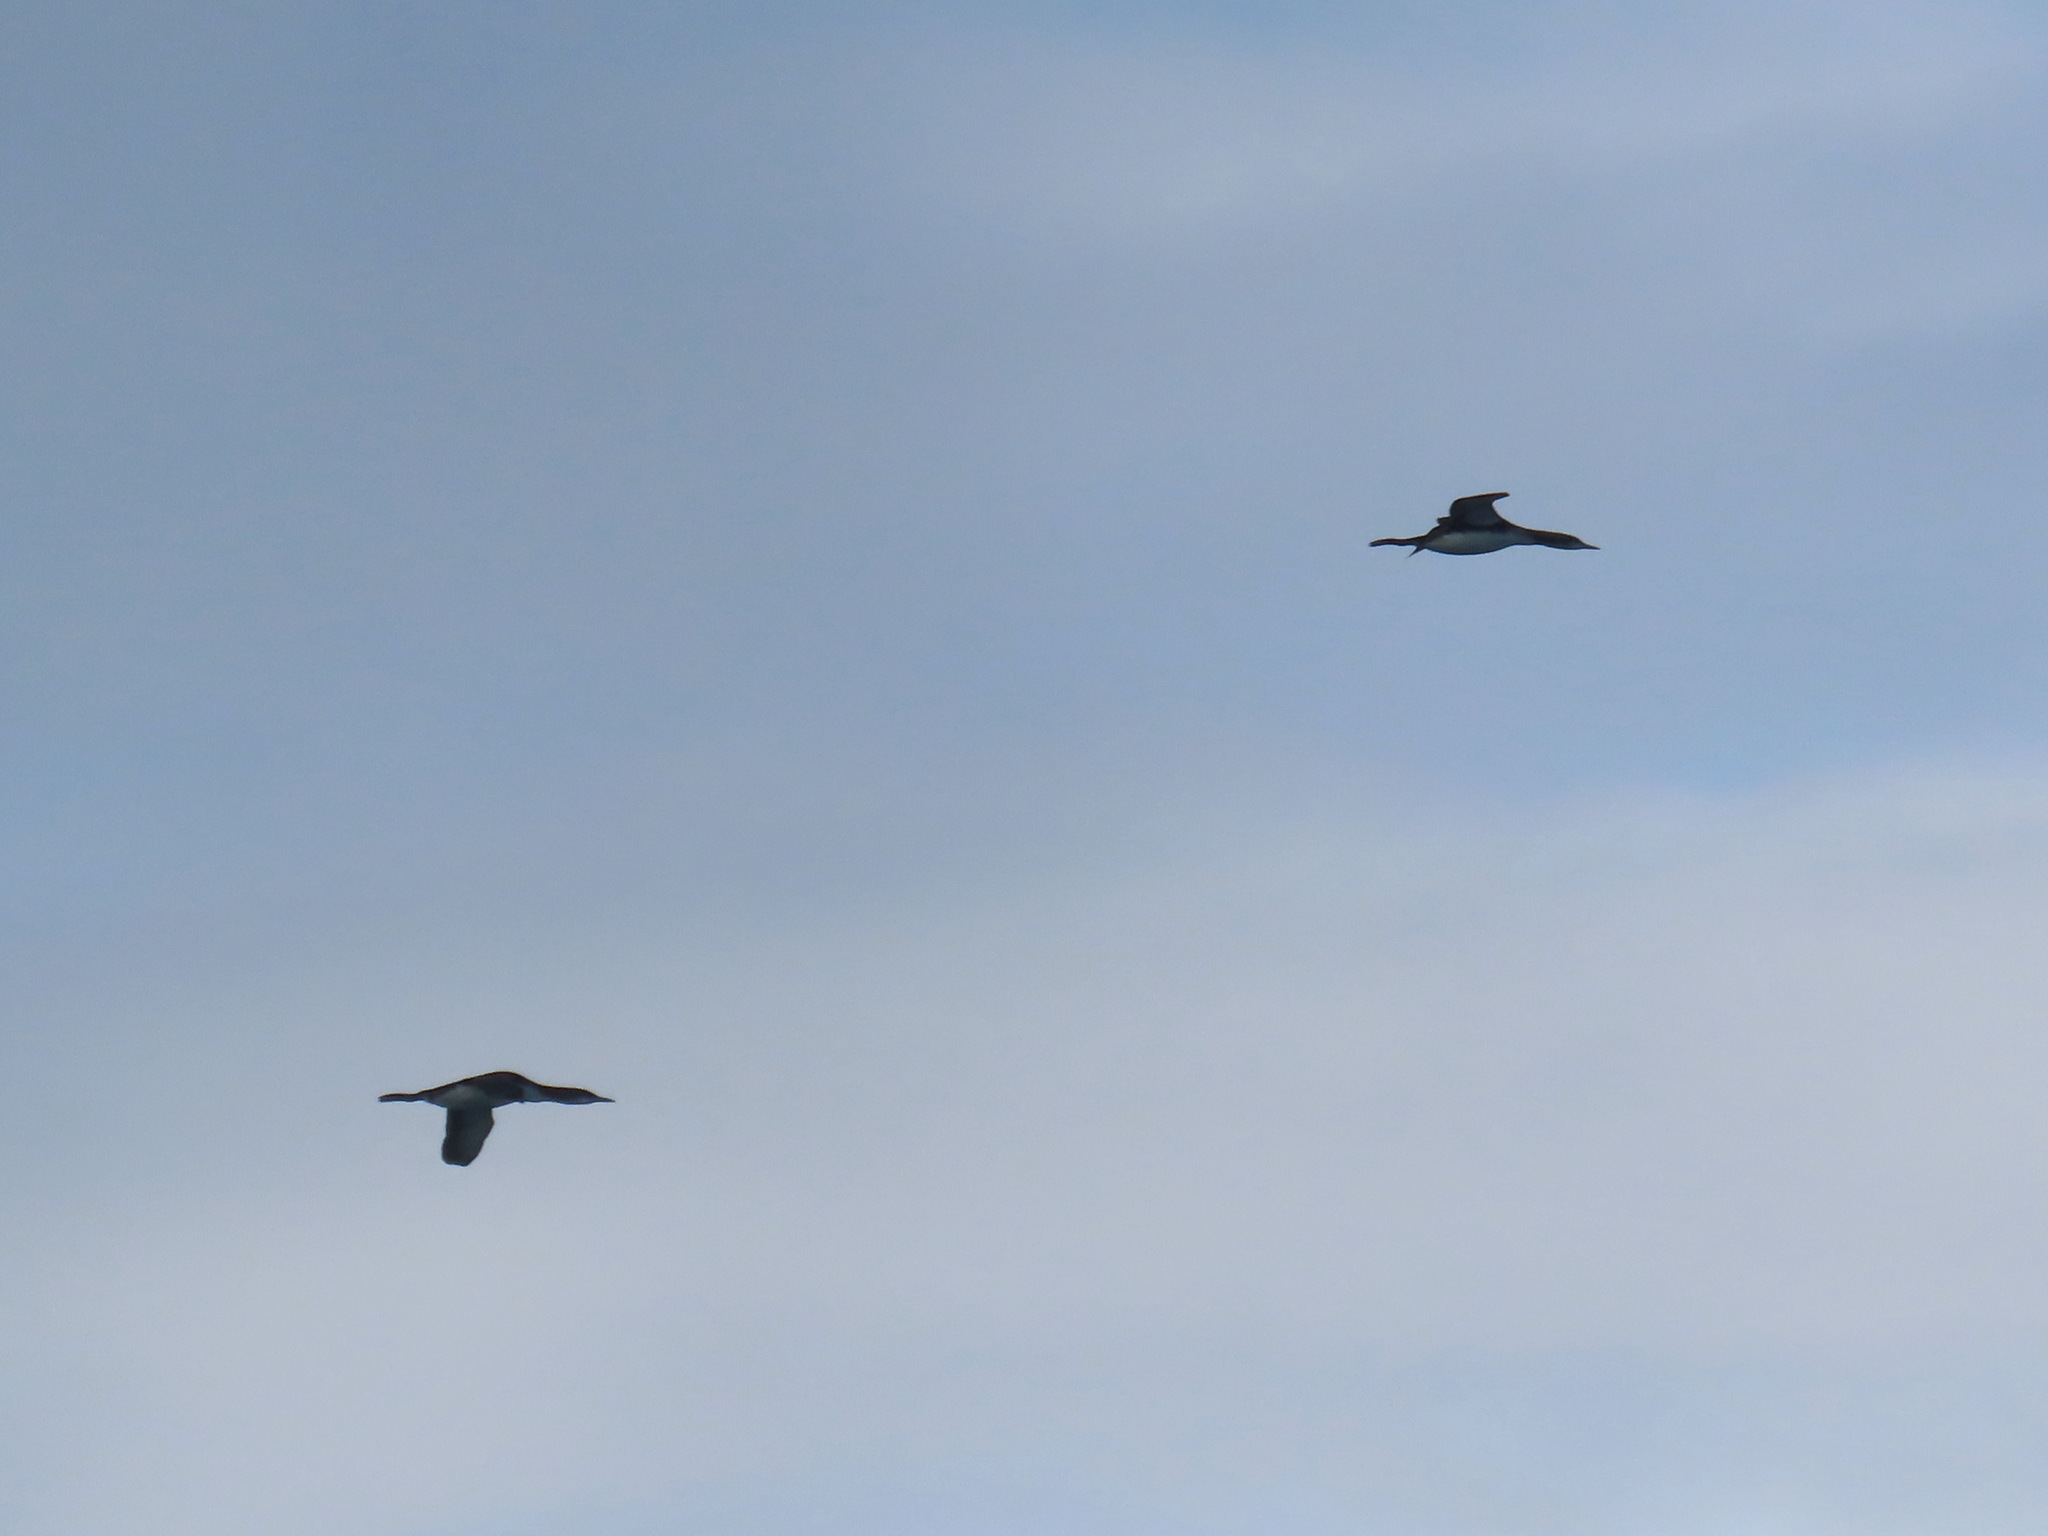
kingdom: Animalia
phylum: Chordata
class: Aves
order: Gaviiformes
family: Gaviidae
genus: Gavia
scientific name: Gavia pacifica
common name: Pacific loon
